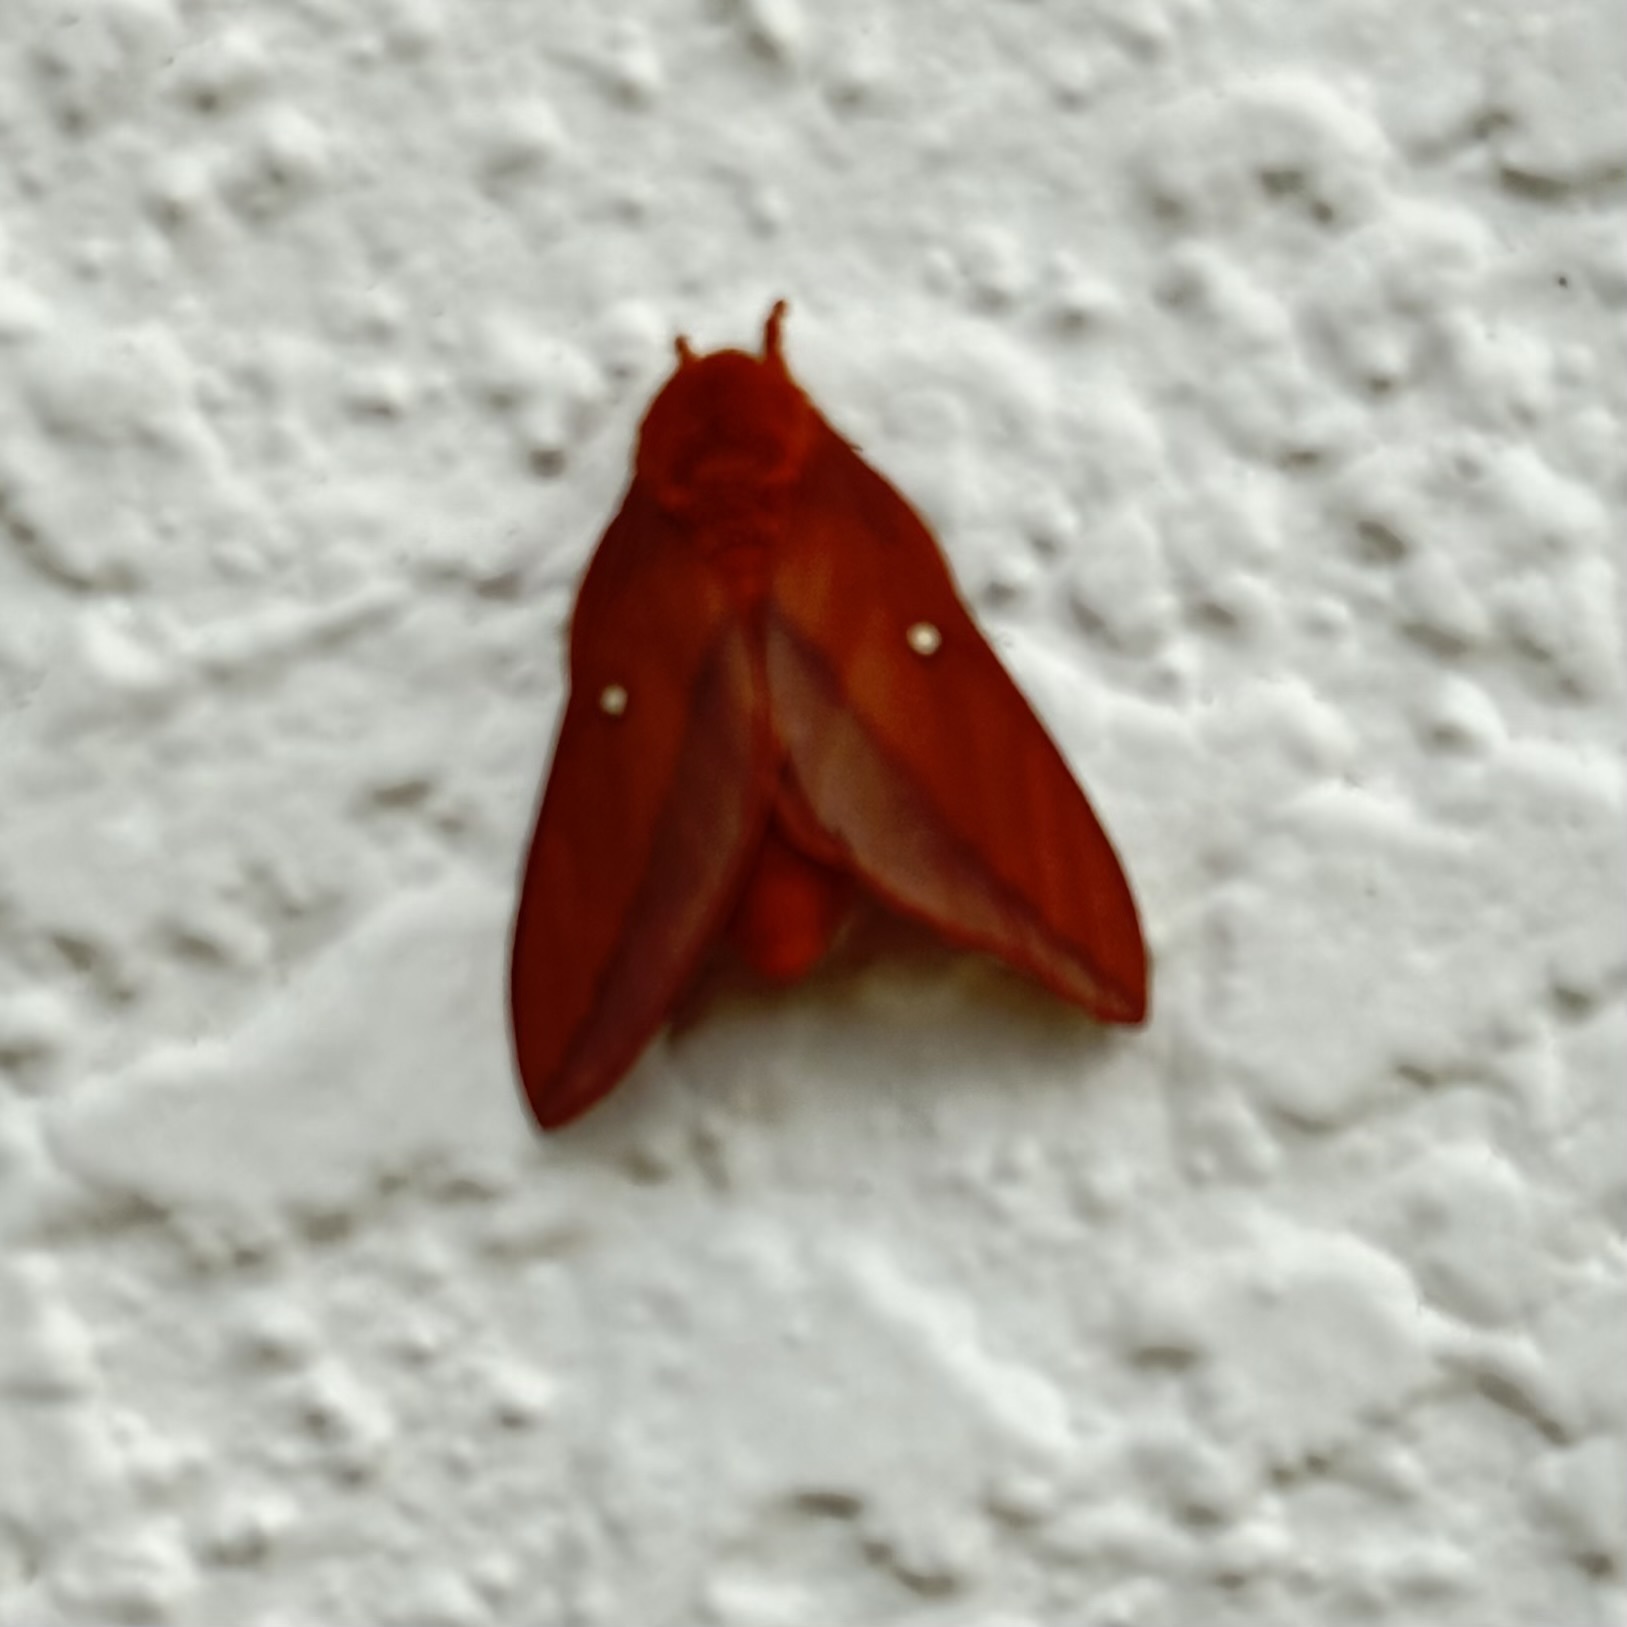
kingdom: Animalia
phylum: Arthropoda
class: Insecta
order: Lepidoptera
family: Saturniidae
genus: Anisota
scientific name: Anisota virginiensis
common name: Pink striped oakworm moth
